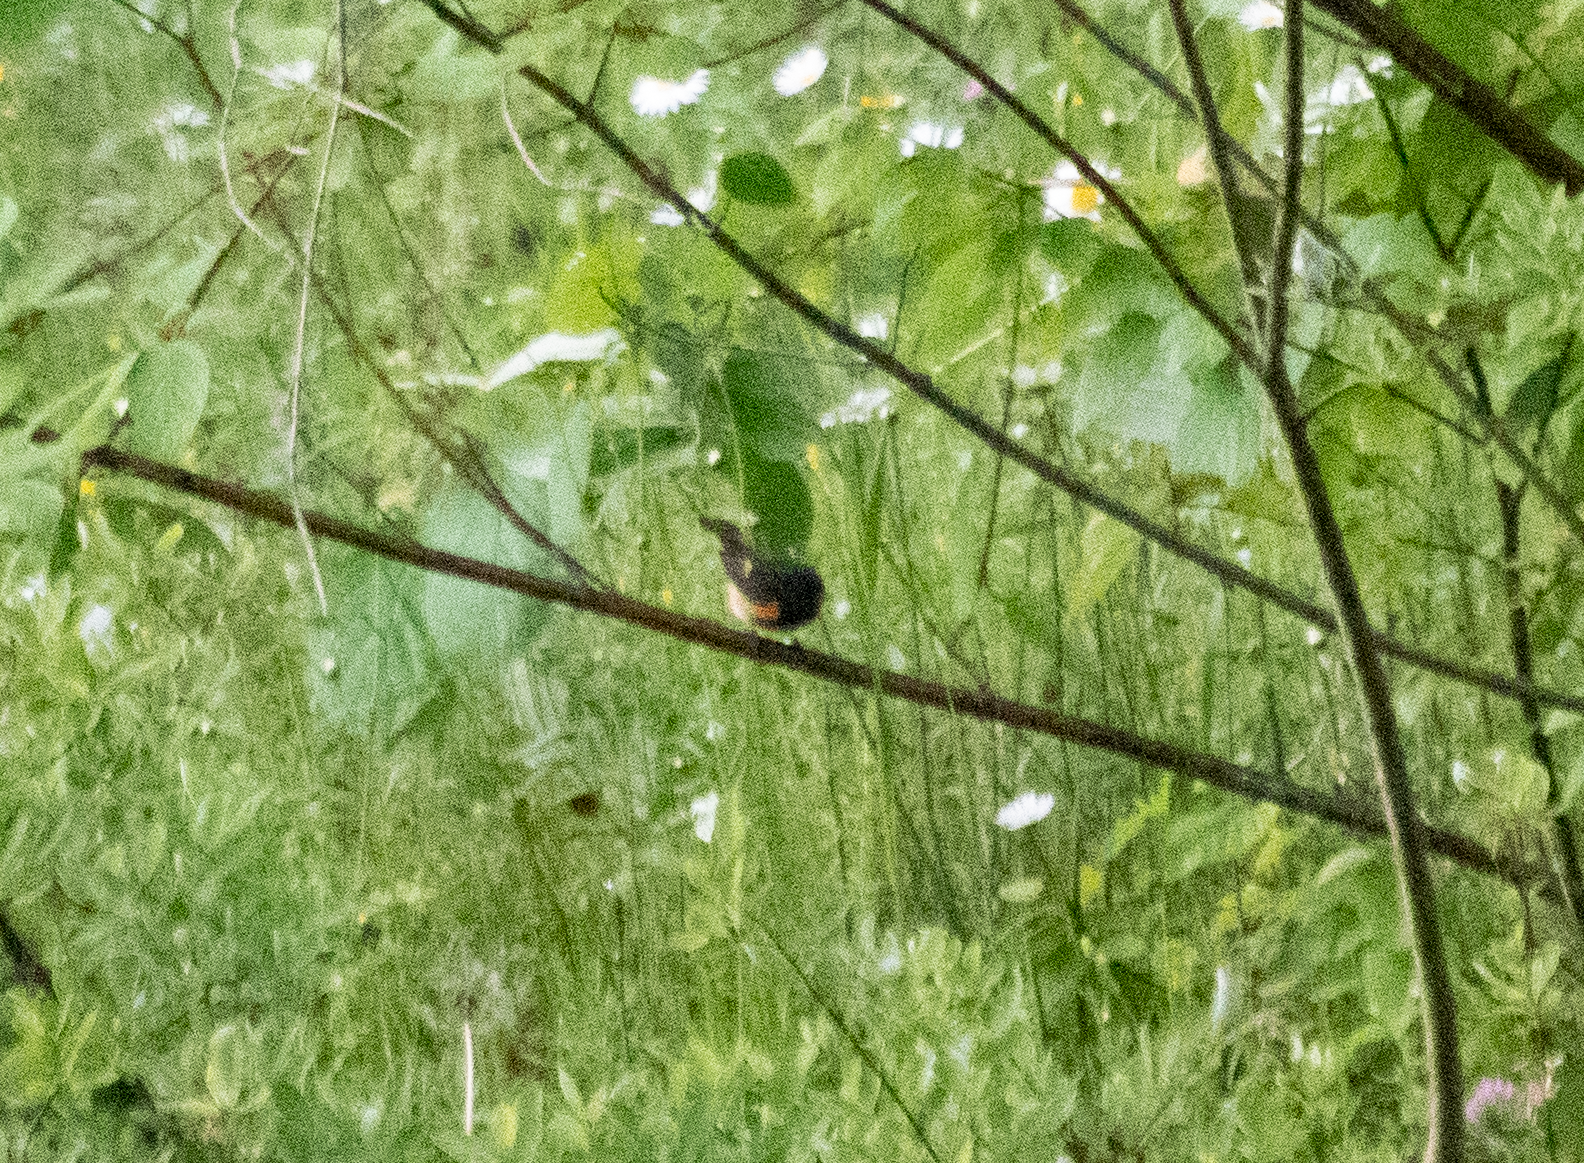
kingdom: Animalia
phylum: Chordata
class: Aves
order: Passeriformes
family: Parulidae
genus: Setophaga
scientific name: Setophaga ruticilla
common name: American redstart
